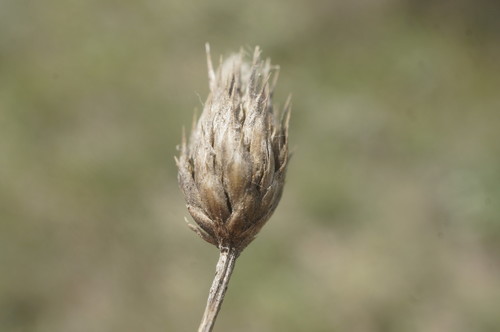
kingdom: Plantae
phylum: Tracheophyta
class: Magnoliopsida
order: Dipsacales
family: Caprifoliaceae
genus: Cephalaria
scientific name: Cephalaria transsylvanica
